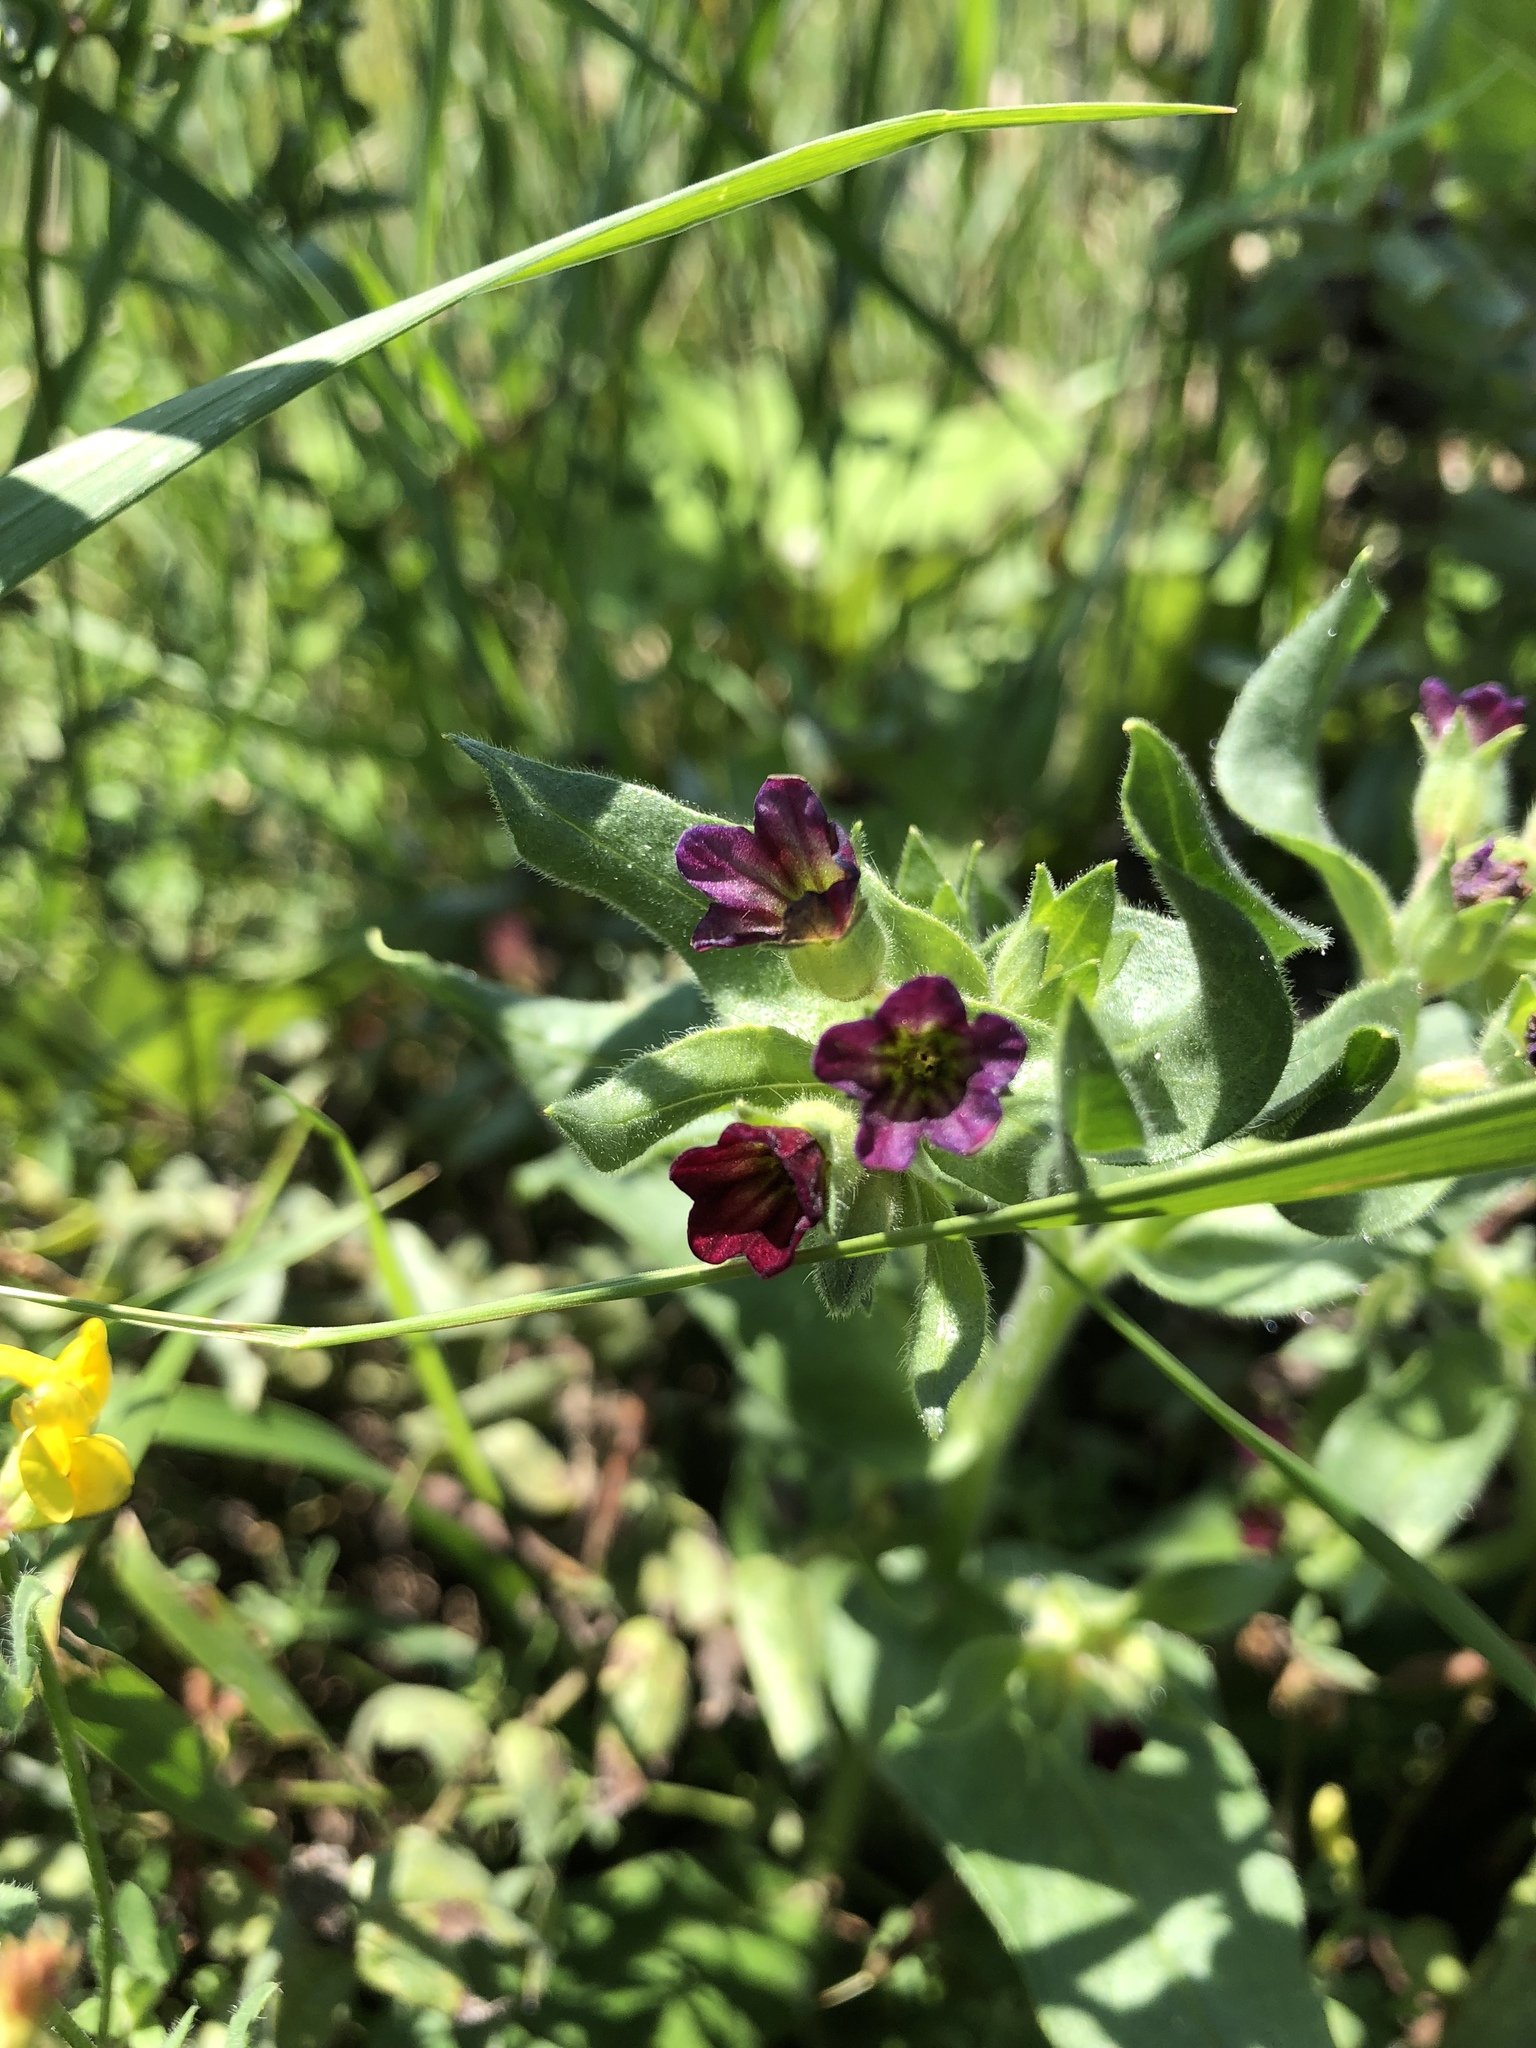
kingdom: Plantae
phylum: Tracheophyta
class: Magnoliopsida
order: Boraginales
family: Boraginaceae
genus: Cynoglossum
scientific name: Cynoglossum officinale
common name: Hound's-tongue
